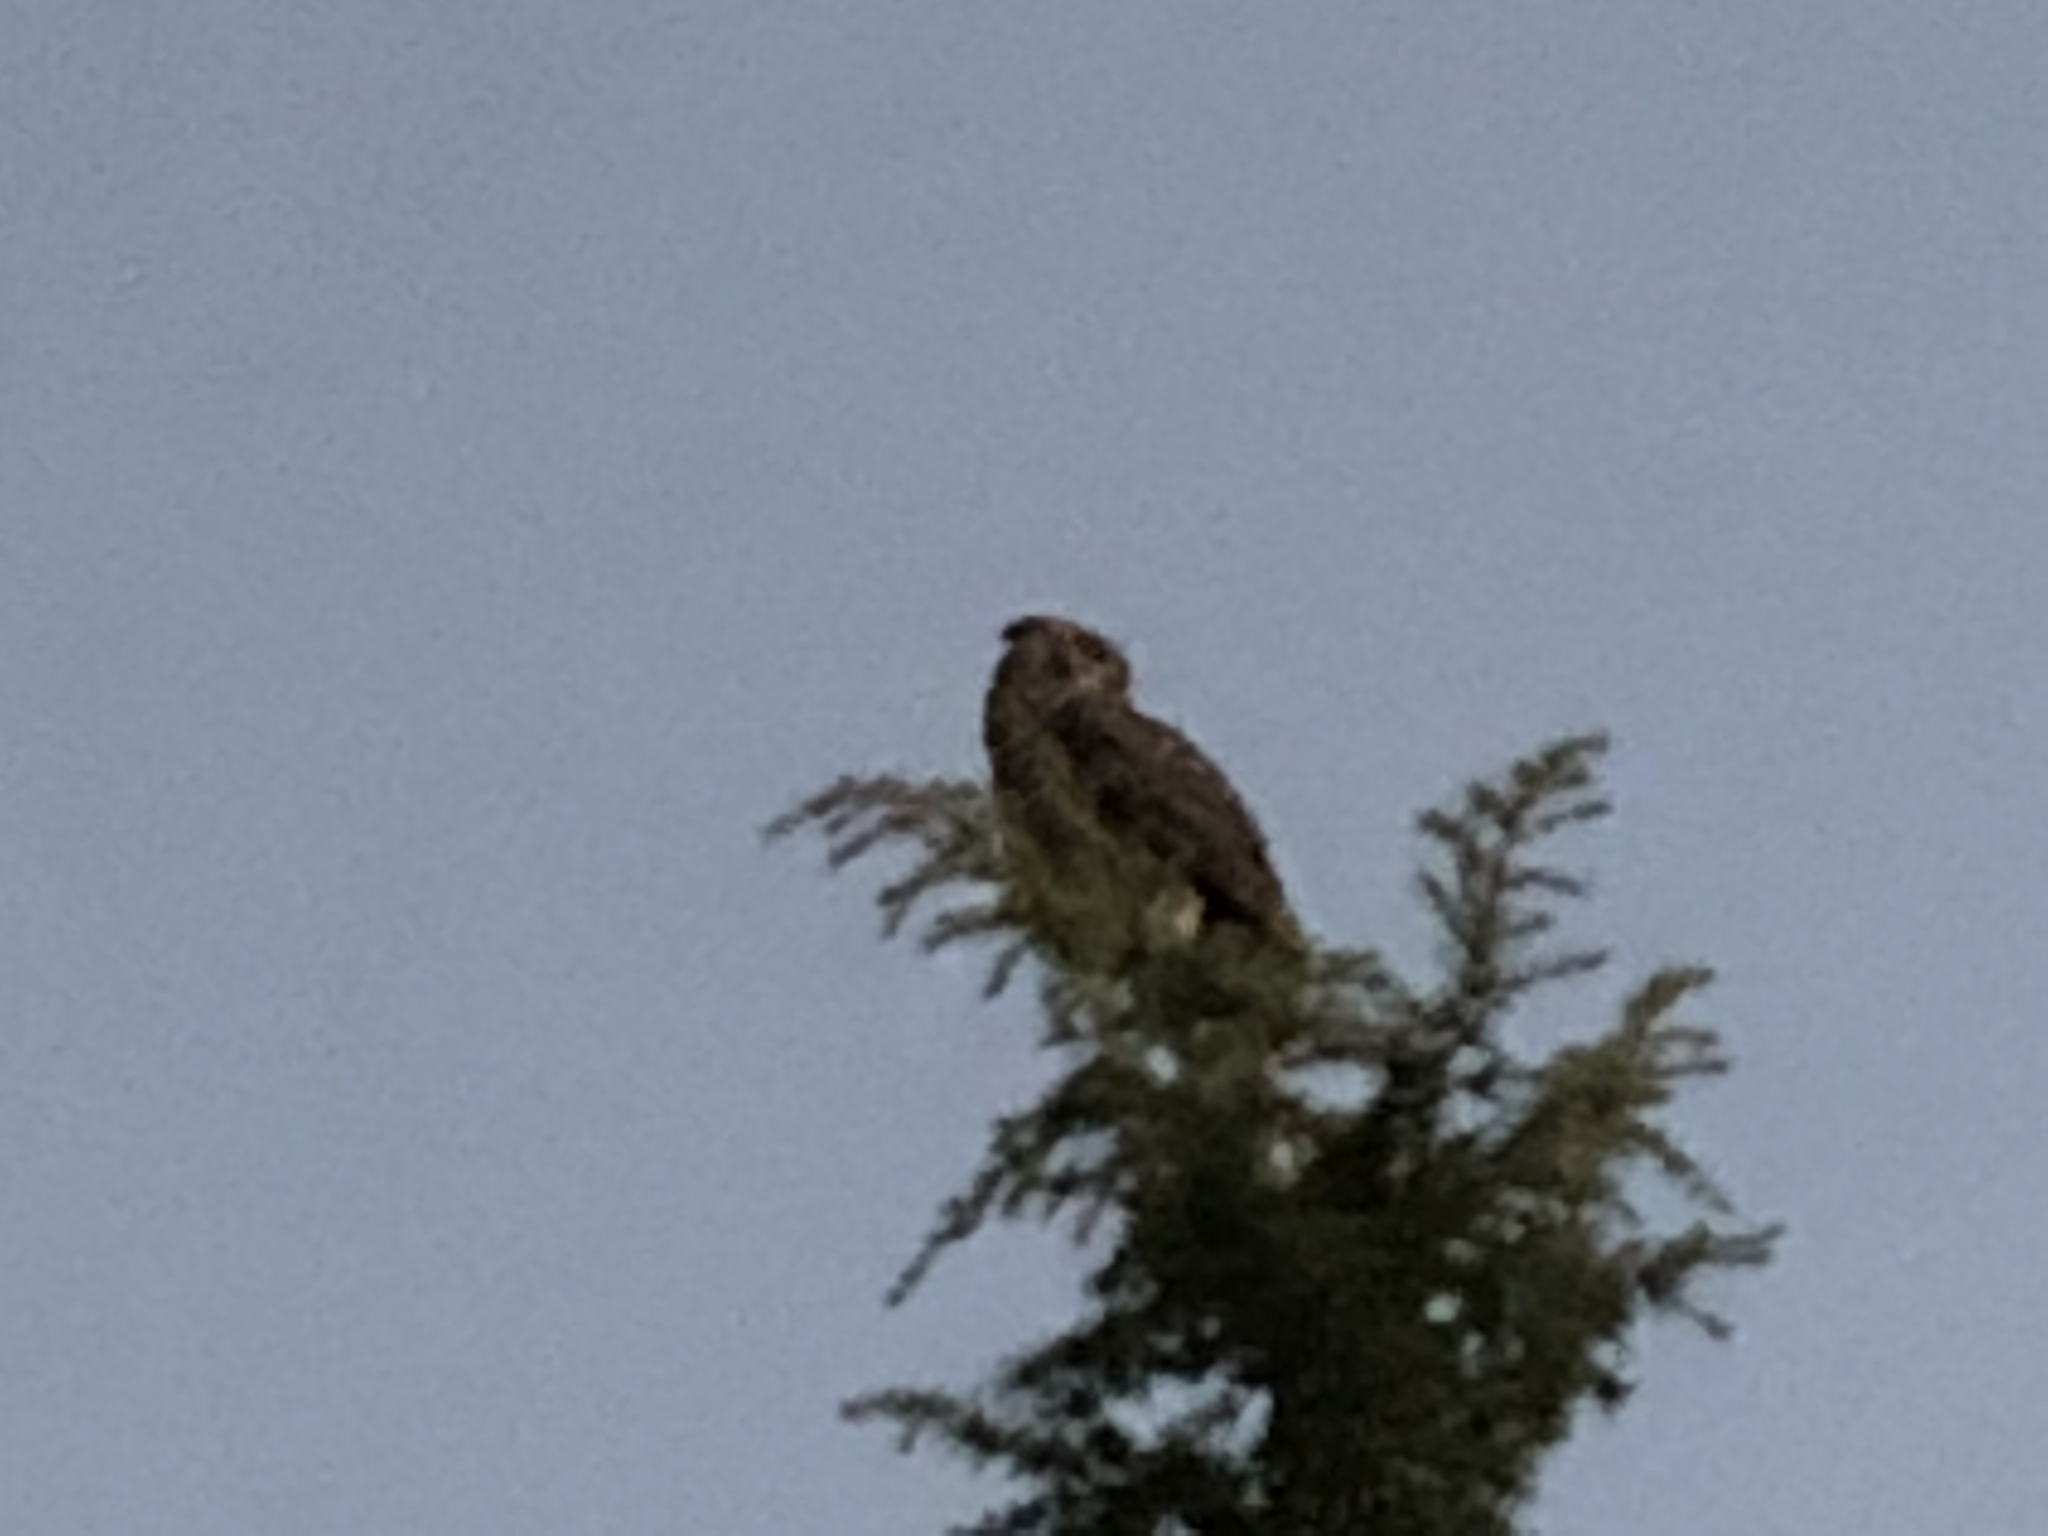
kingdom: Animalia
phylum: Chordata
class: Aves
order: Strigiformes
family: Strigidae
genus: Bubo
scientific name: Bubo virginianus
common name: Great horned owl
